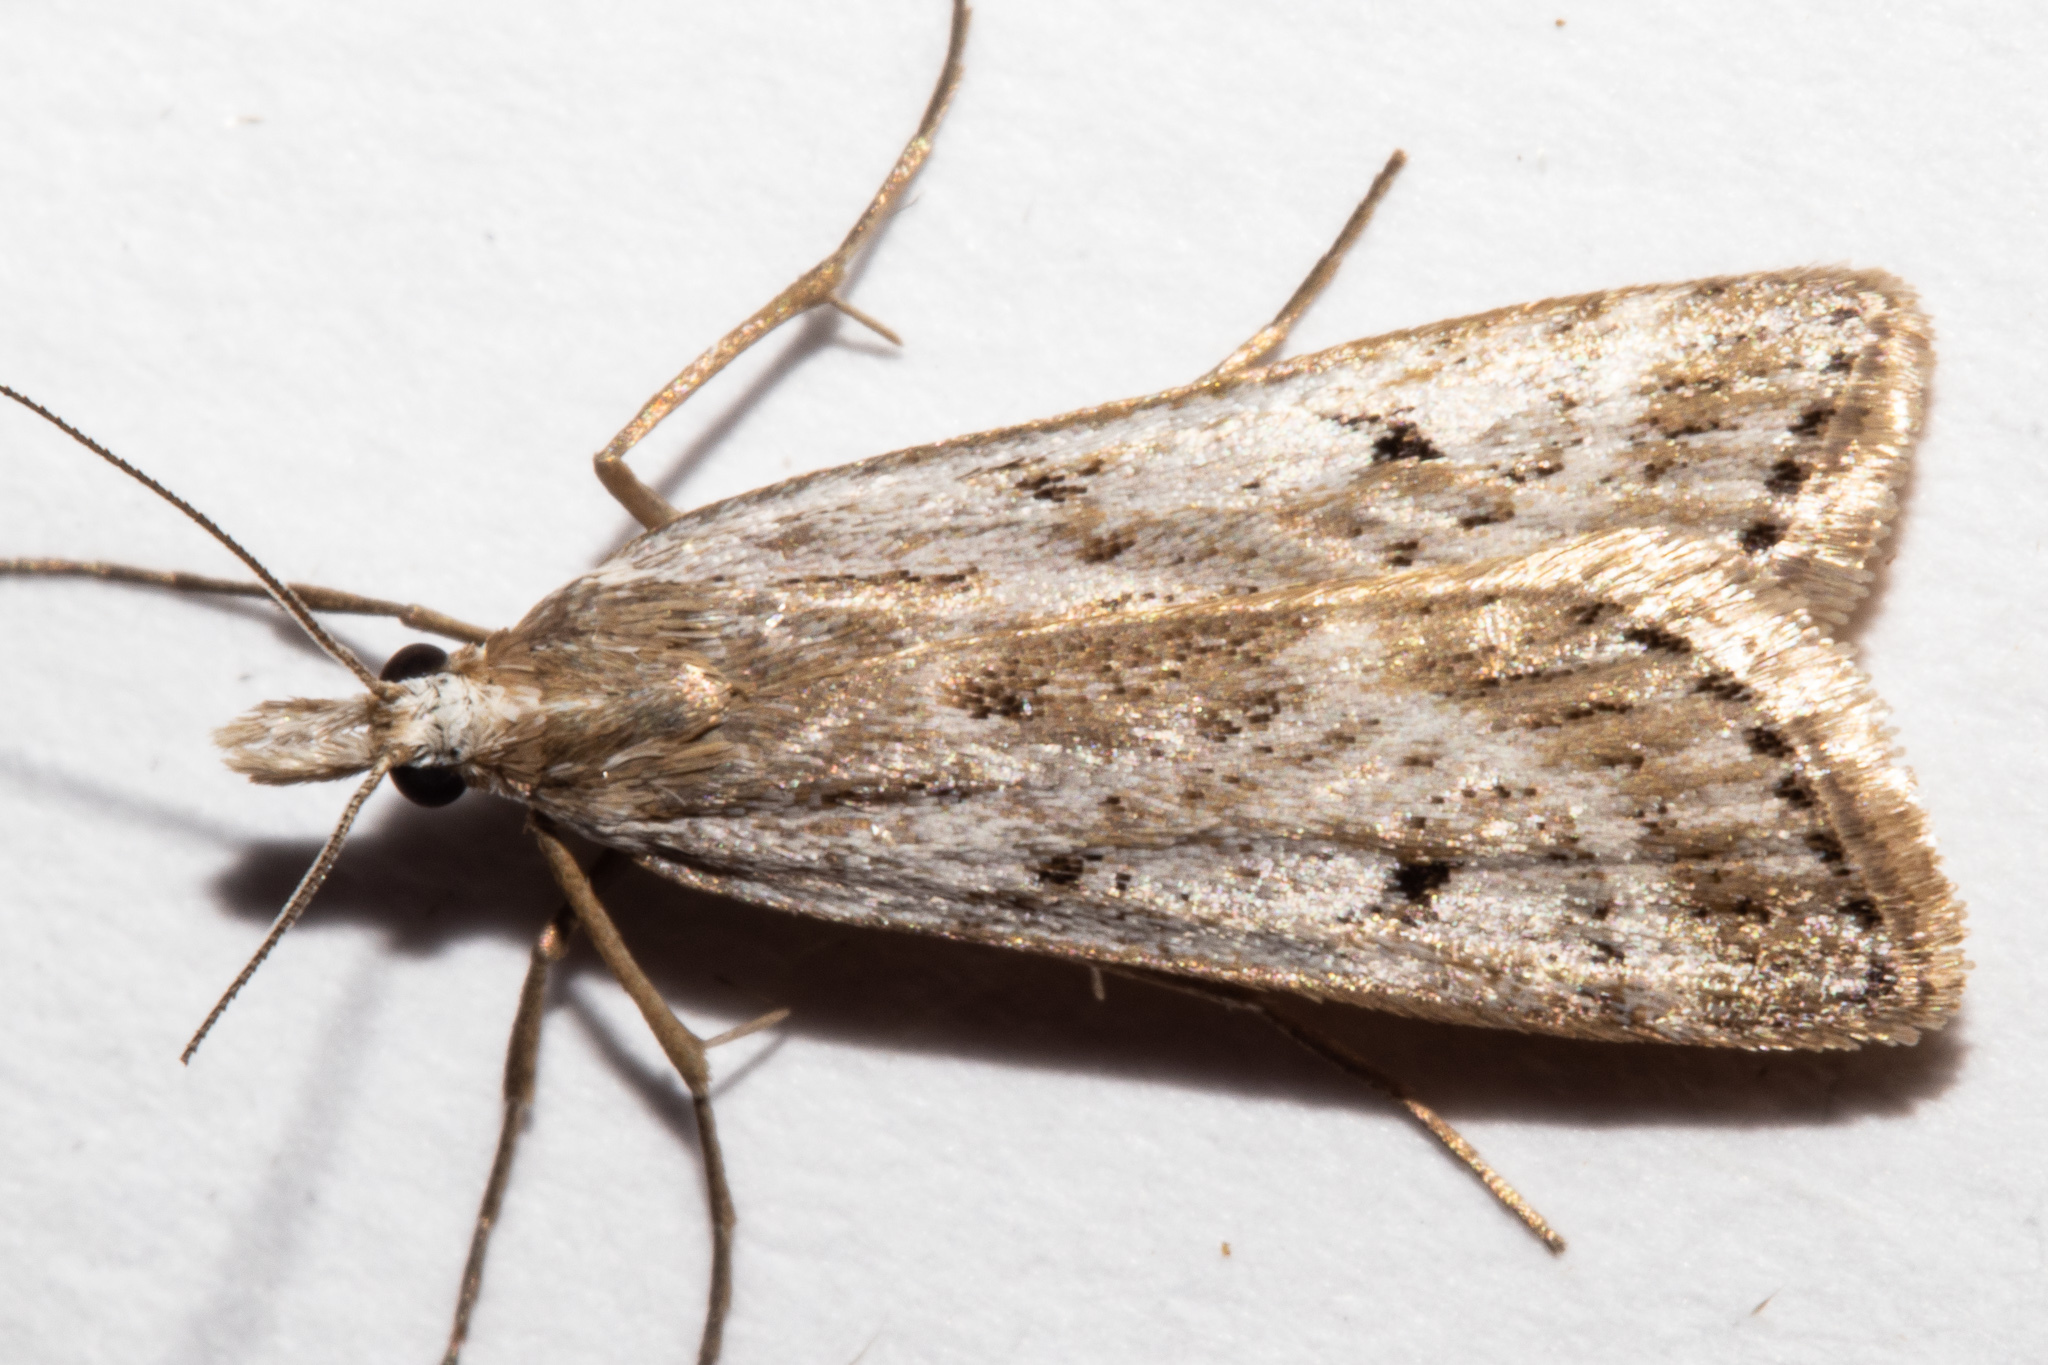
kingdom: Animalia
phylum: Arthropoda
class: Insecta
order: Lepidoptera
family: Crambidae
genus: Eudonia
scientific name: Eudonia deltophora
